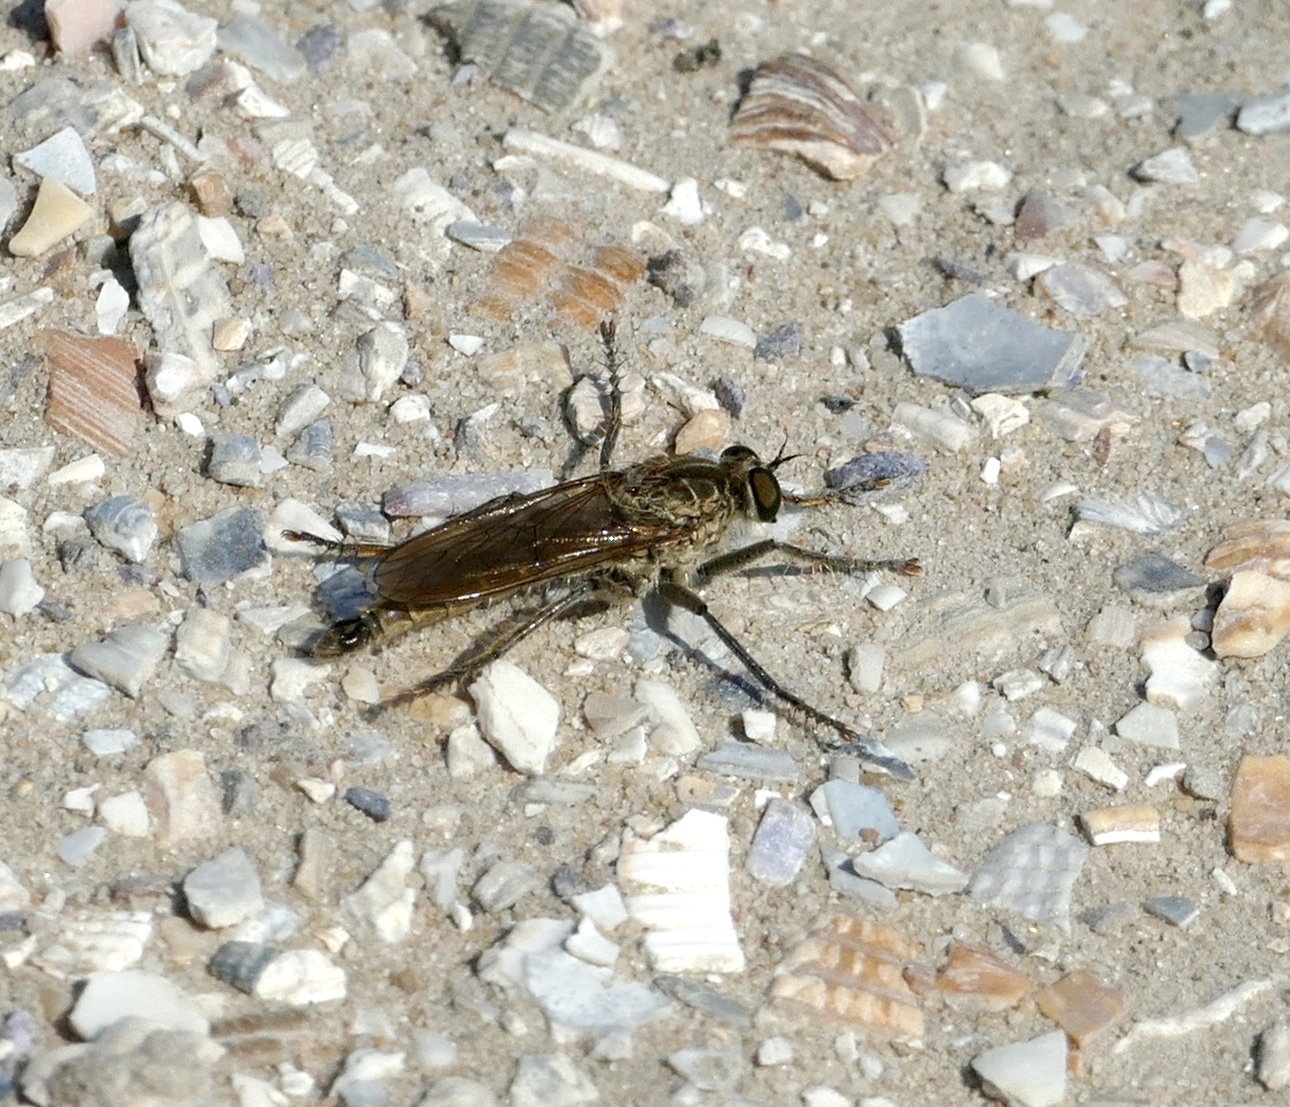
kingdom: Animalia
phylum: Arthropoda
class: Insecta
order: Diptera
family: Asilidae
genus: Philonicus
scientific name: Philonicus albiceps
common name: Dune robberfly
